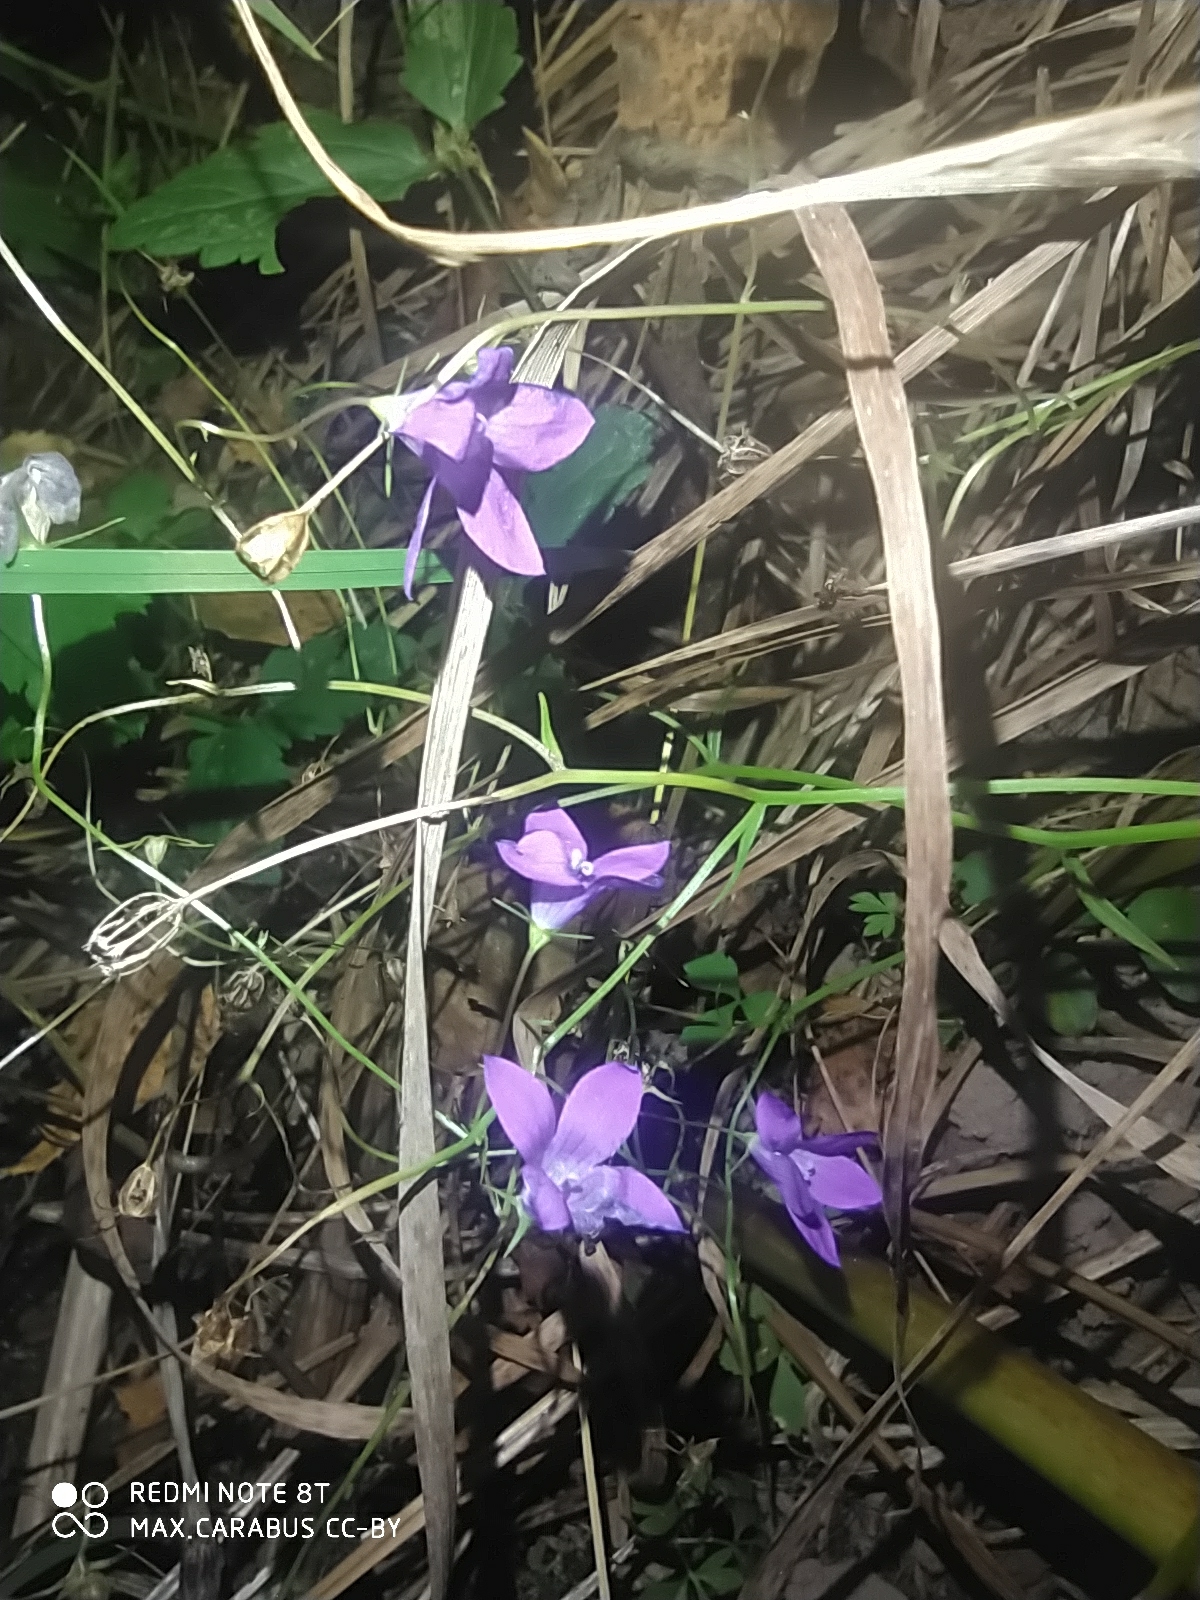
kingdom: Plantae
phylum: Tracheophyta
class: Magnoliopsida
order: Asterales
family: Campanulaceae
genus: Campanula
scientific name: Campanula patula
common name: Spreading bellflower
